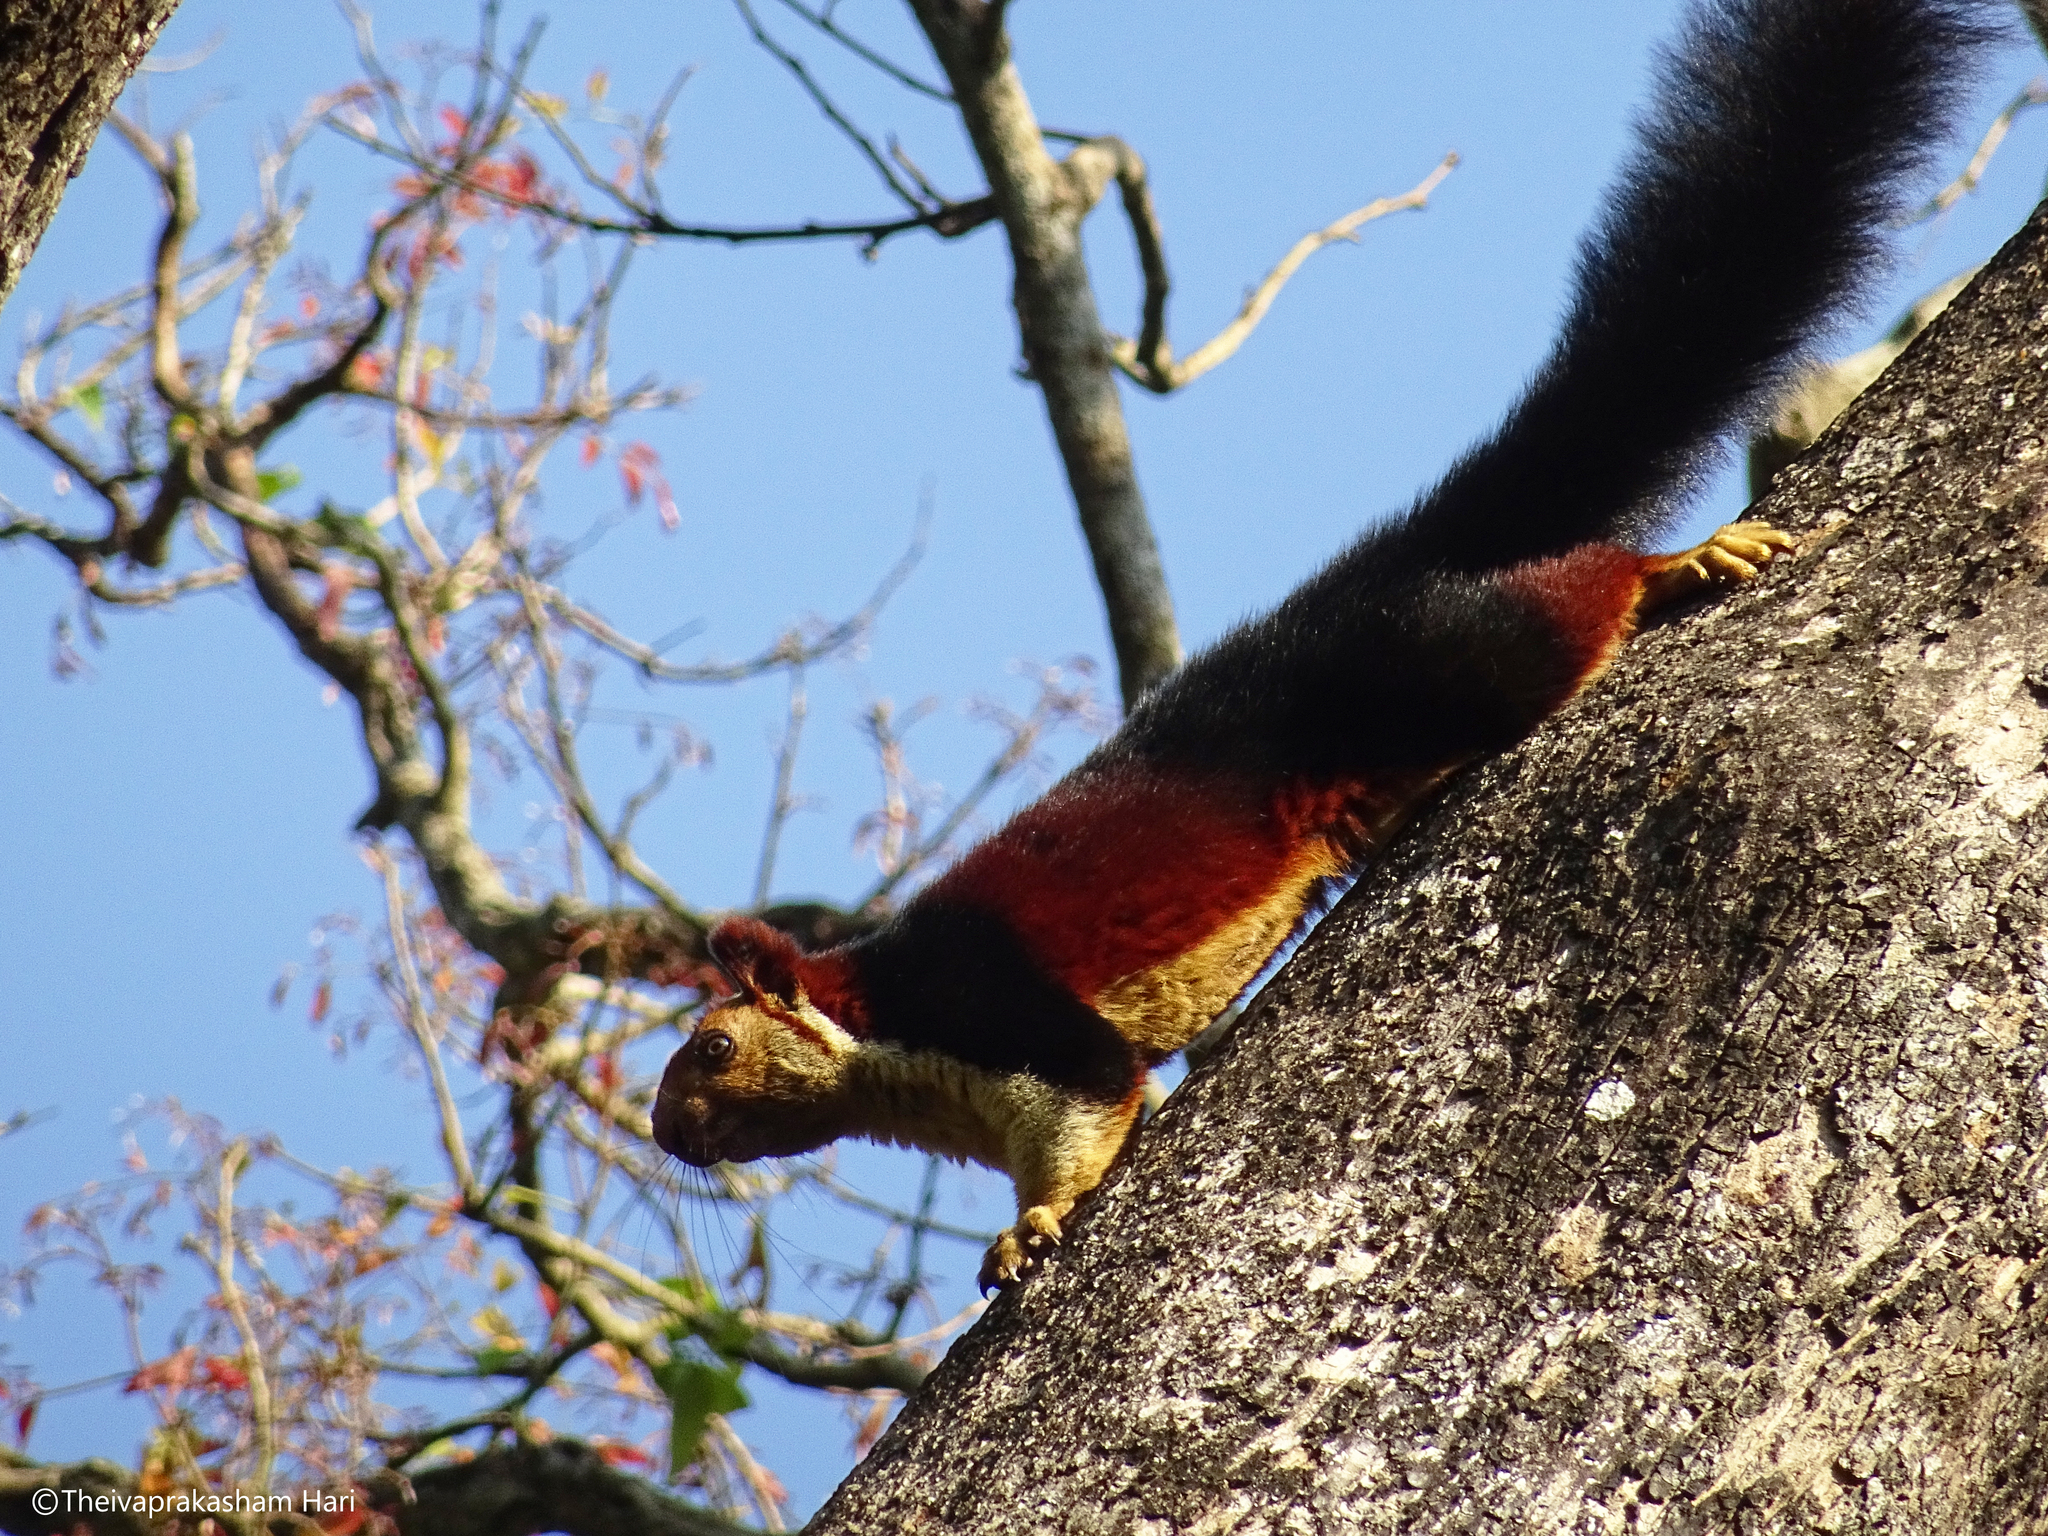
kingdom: Animalia
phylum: Chordata
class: Mammalia
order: Rodentia
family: Sciuridae
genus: Ratufa
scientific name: Ratufa indica
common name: Indian giant squirrel
